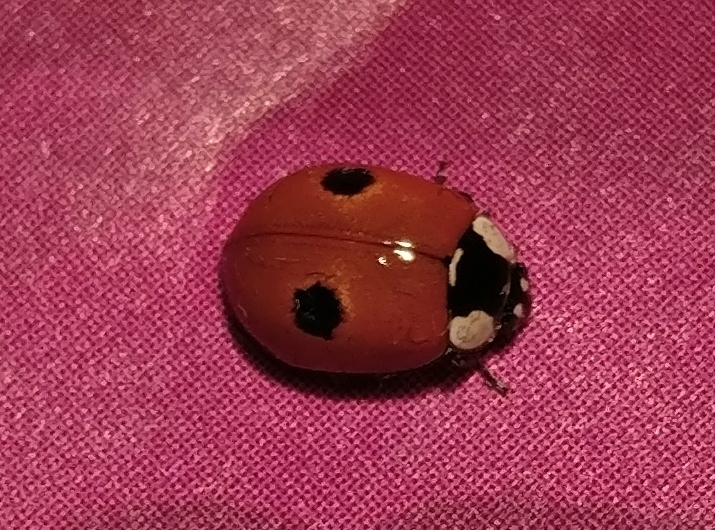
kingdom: Animalia
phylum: Arthropoda
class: Insecta
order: Coleoptera
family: Coccinellidae
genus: Adalia
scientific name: Adalia bipunctata
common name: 2-spot ladybird
